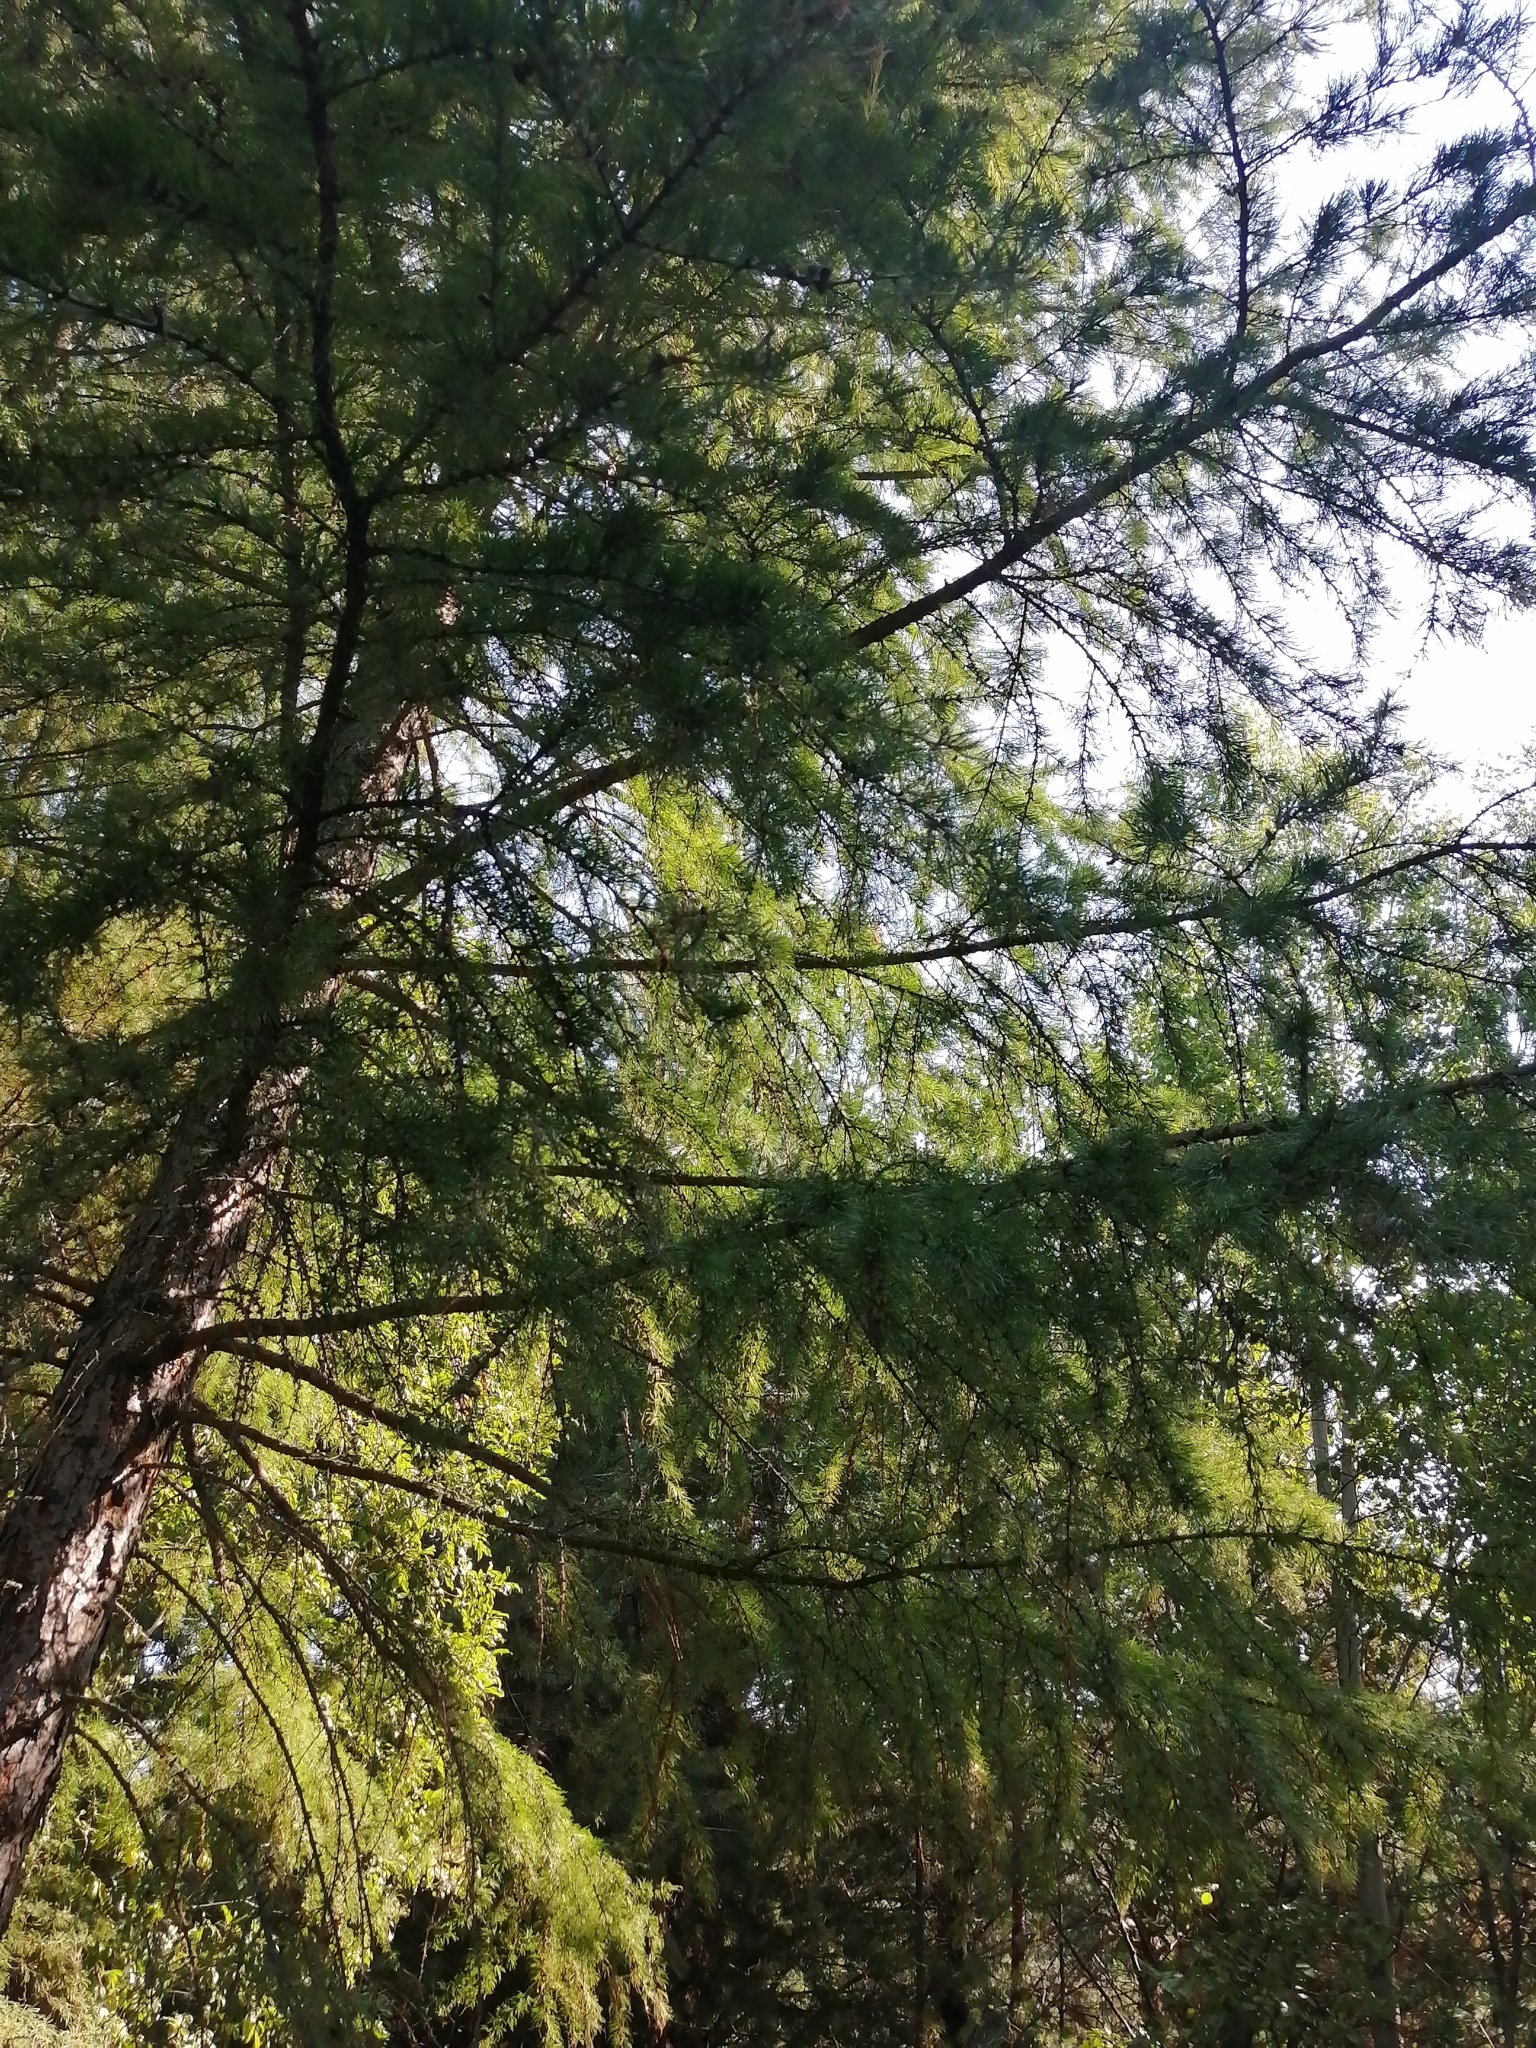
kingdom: Plantae
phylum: Tracheophyta
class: Pinopsida
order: Pinales
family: Pinaceae
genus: Larix
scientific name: Larix sibirica
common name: Siberian larch
